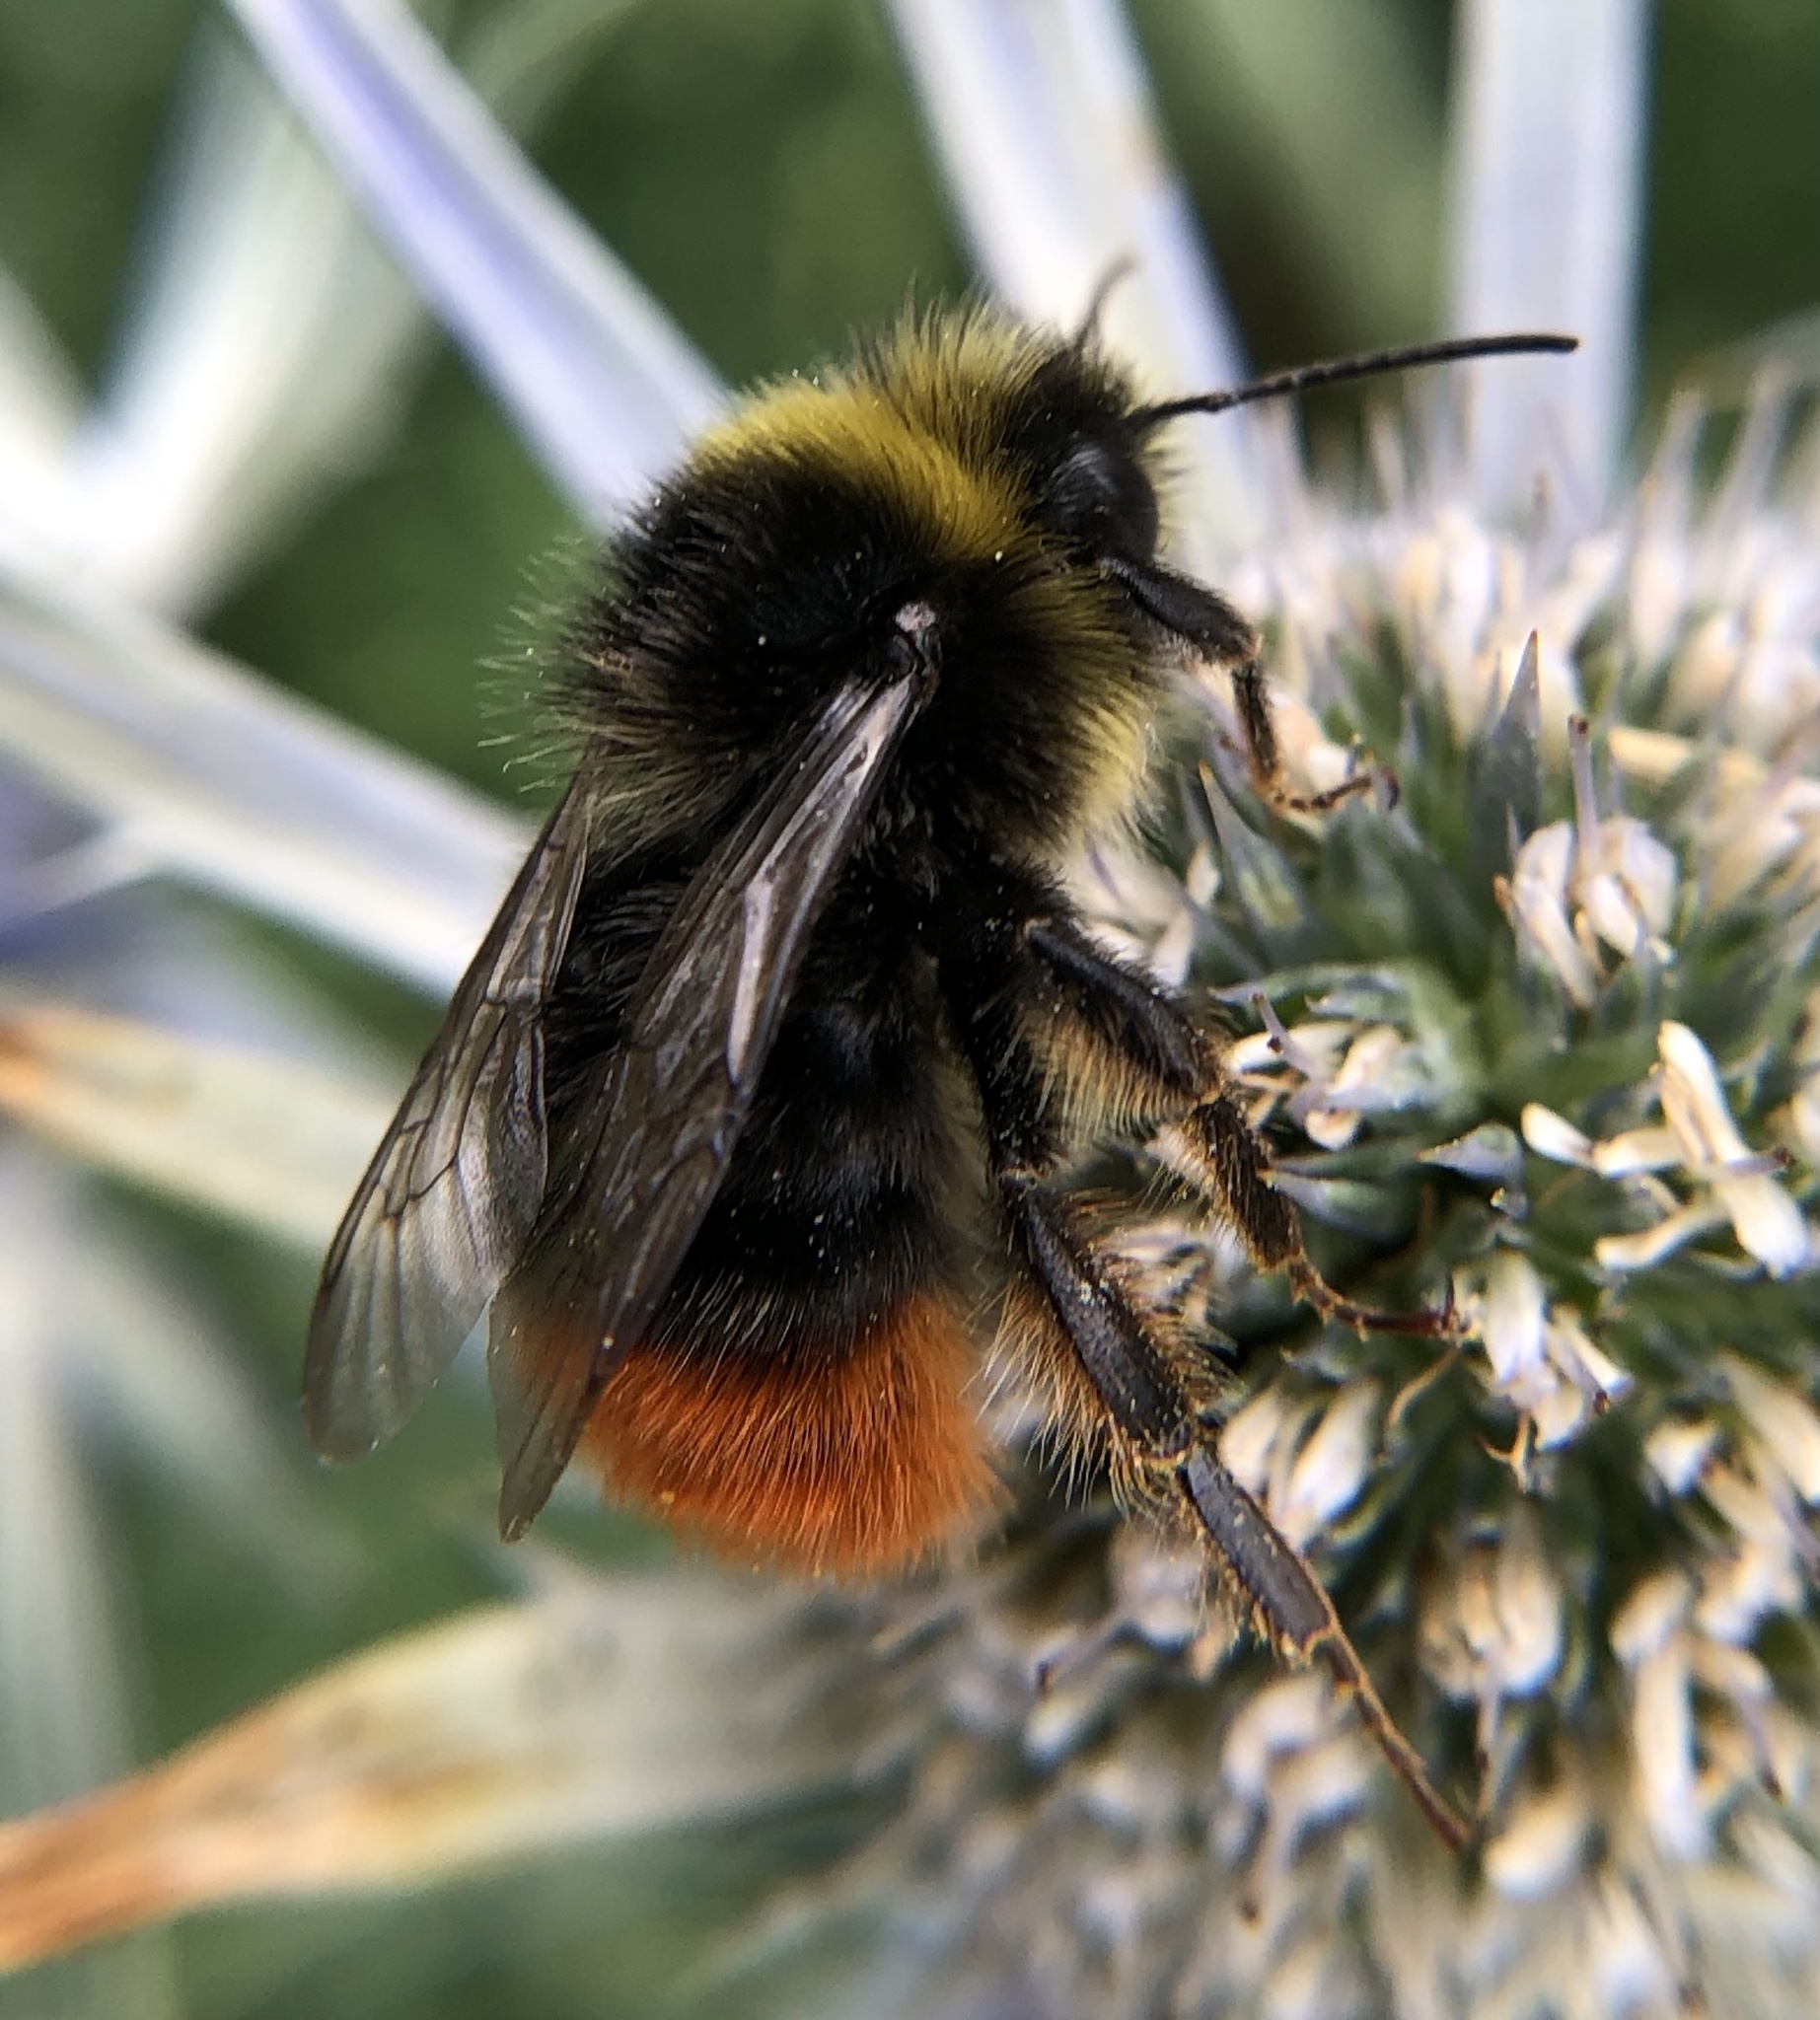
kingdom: Animalia
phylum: Arthropoda
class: Insecta
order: Hymenoptera
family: Apidae
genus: Bombus
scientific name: Bombus lapidarius
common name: Large red-tailed humble-bee
